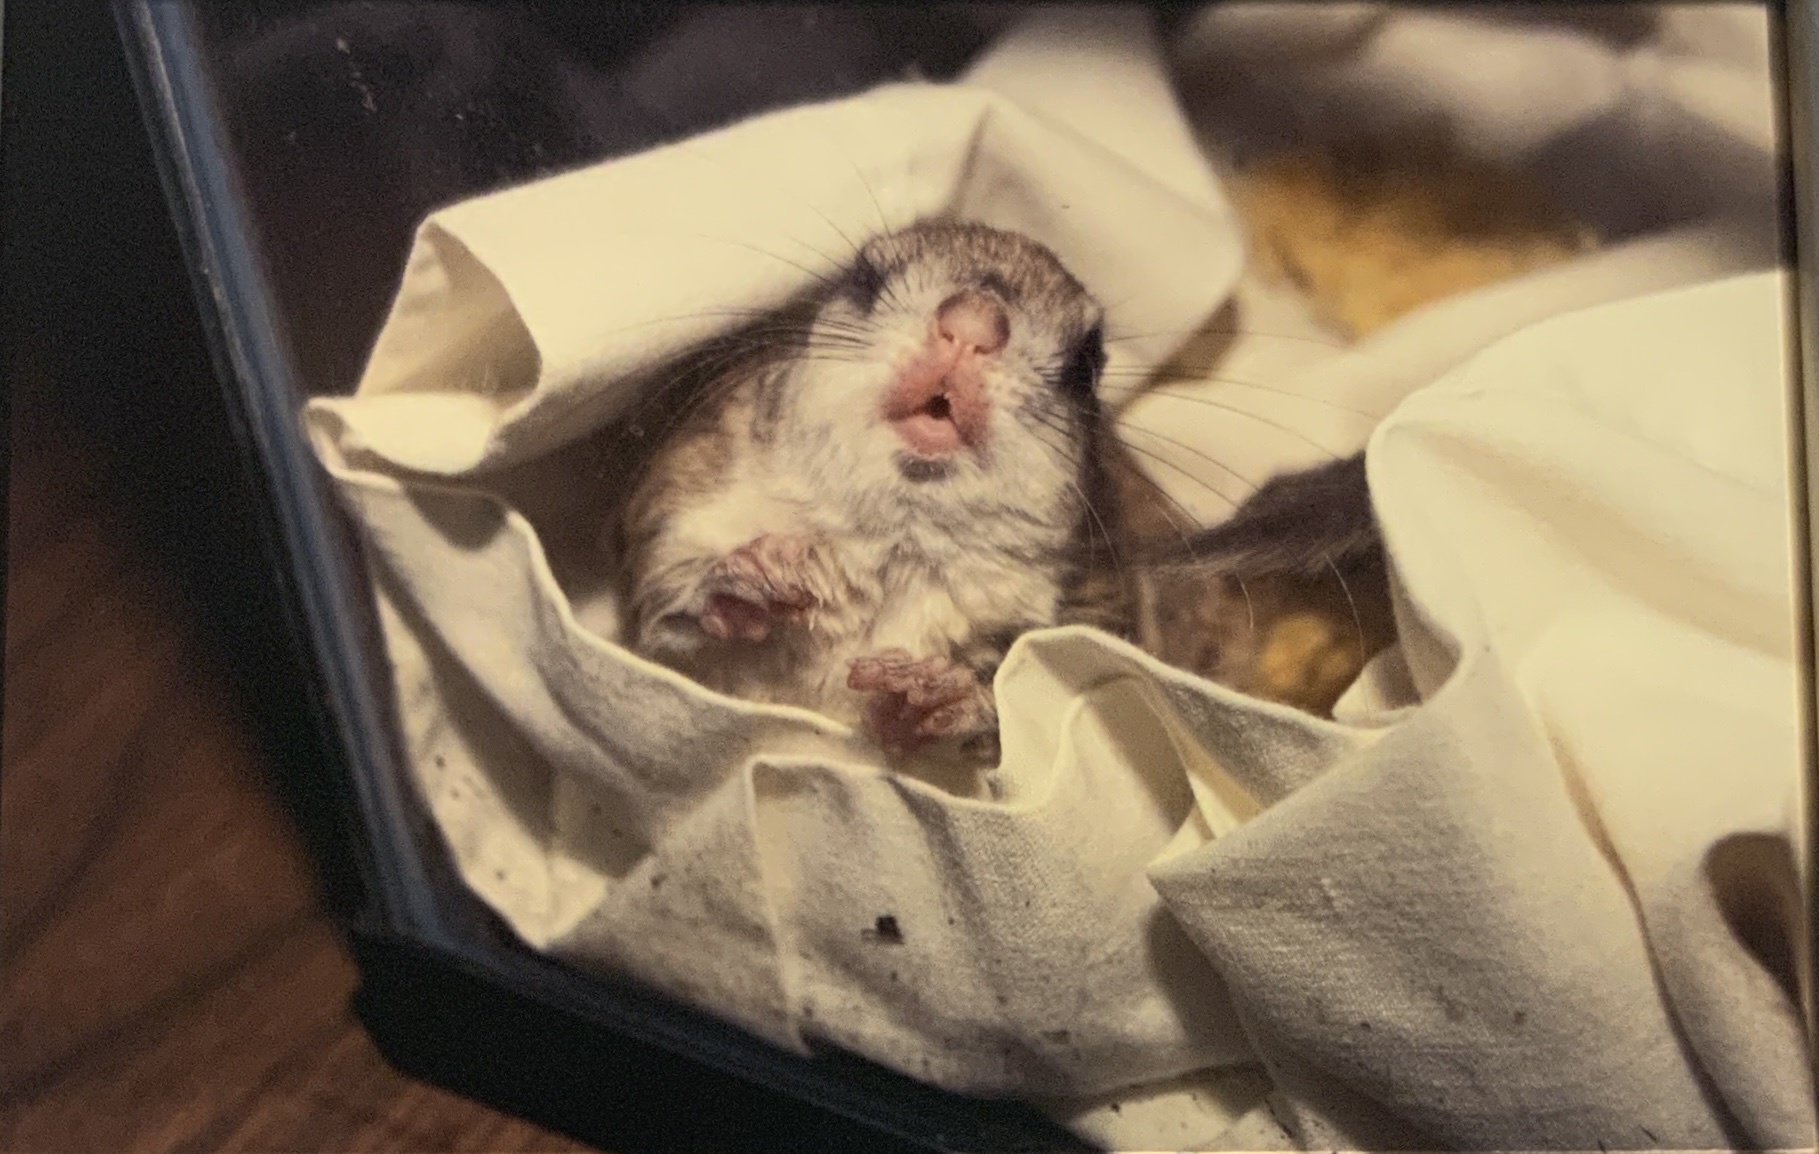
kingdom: Animalia
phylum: Chordata
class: Mammalia
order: Rodentia
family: Sciuridae
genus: Glaucomys
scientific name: Glaucomys volans
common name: Southern flying squirrel
